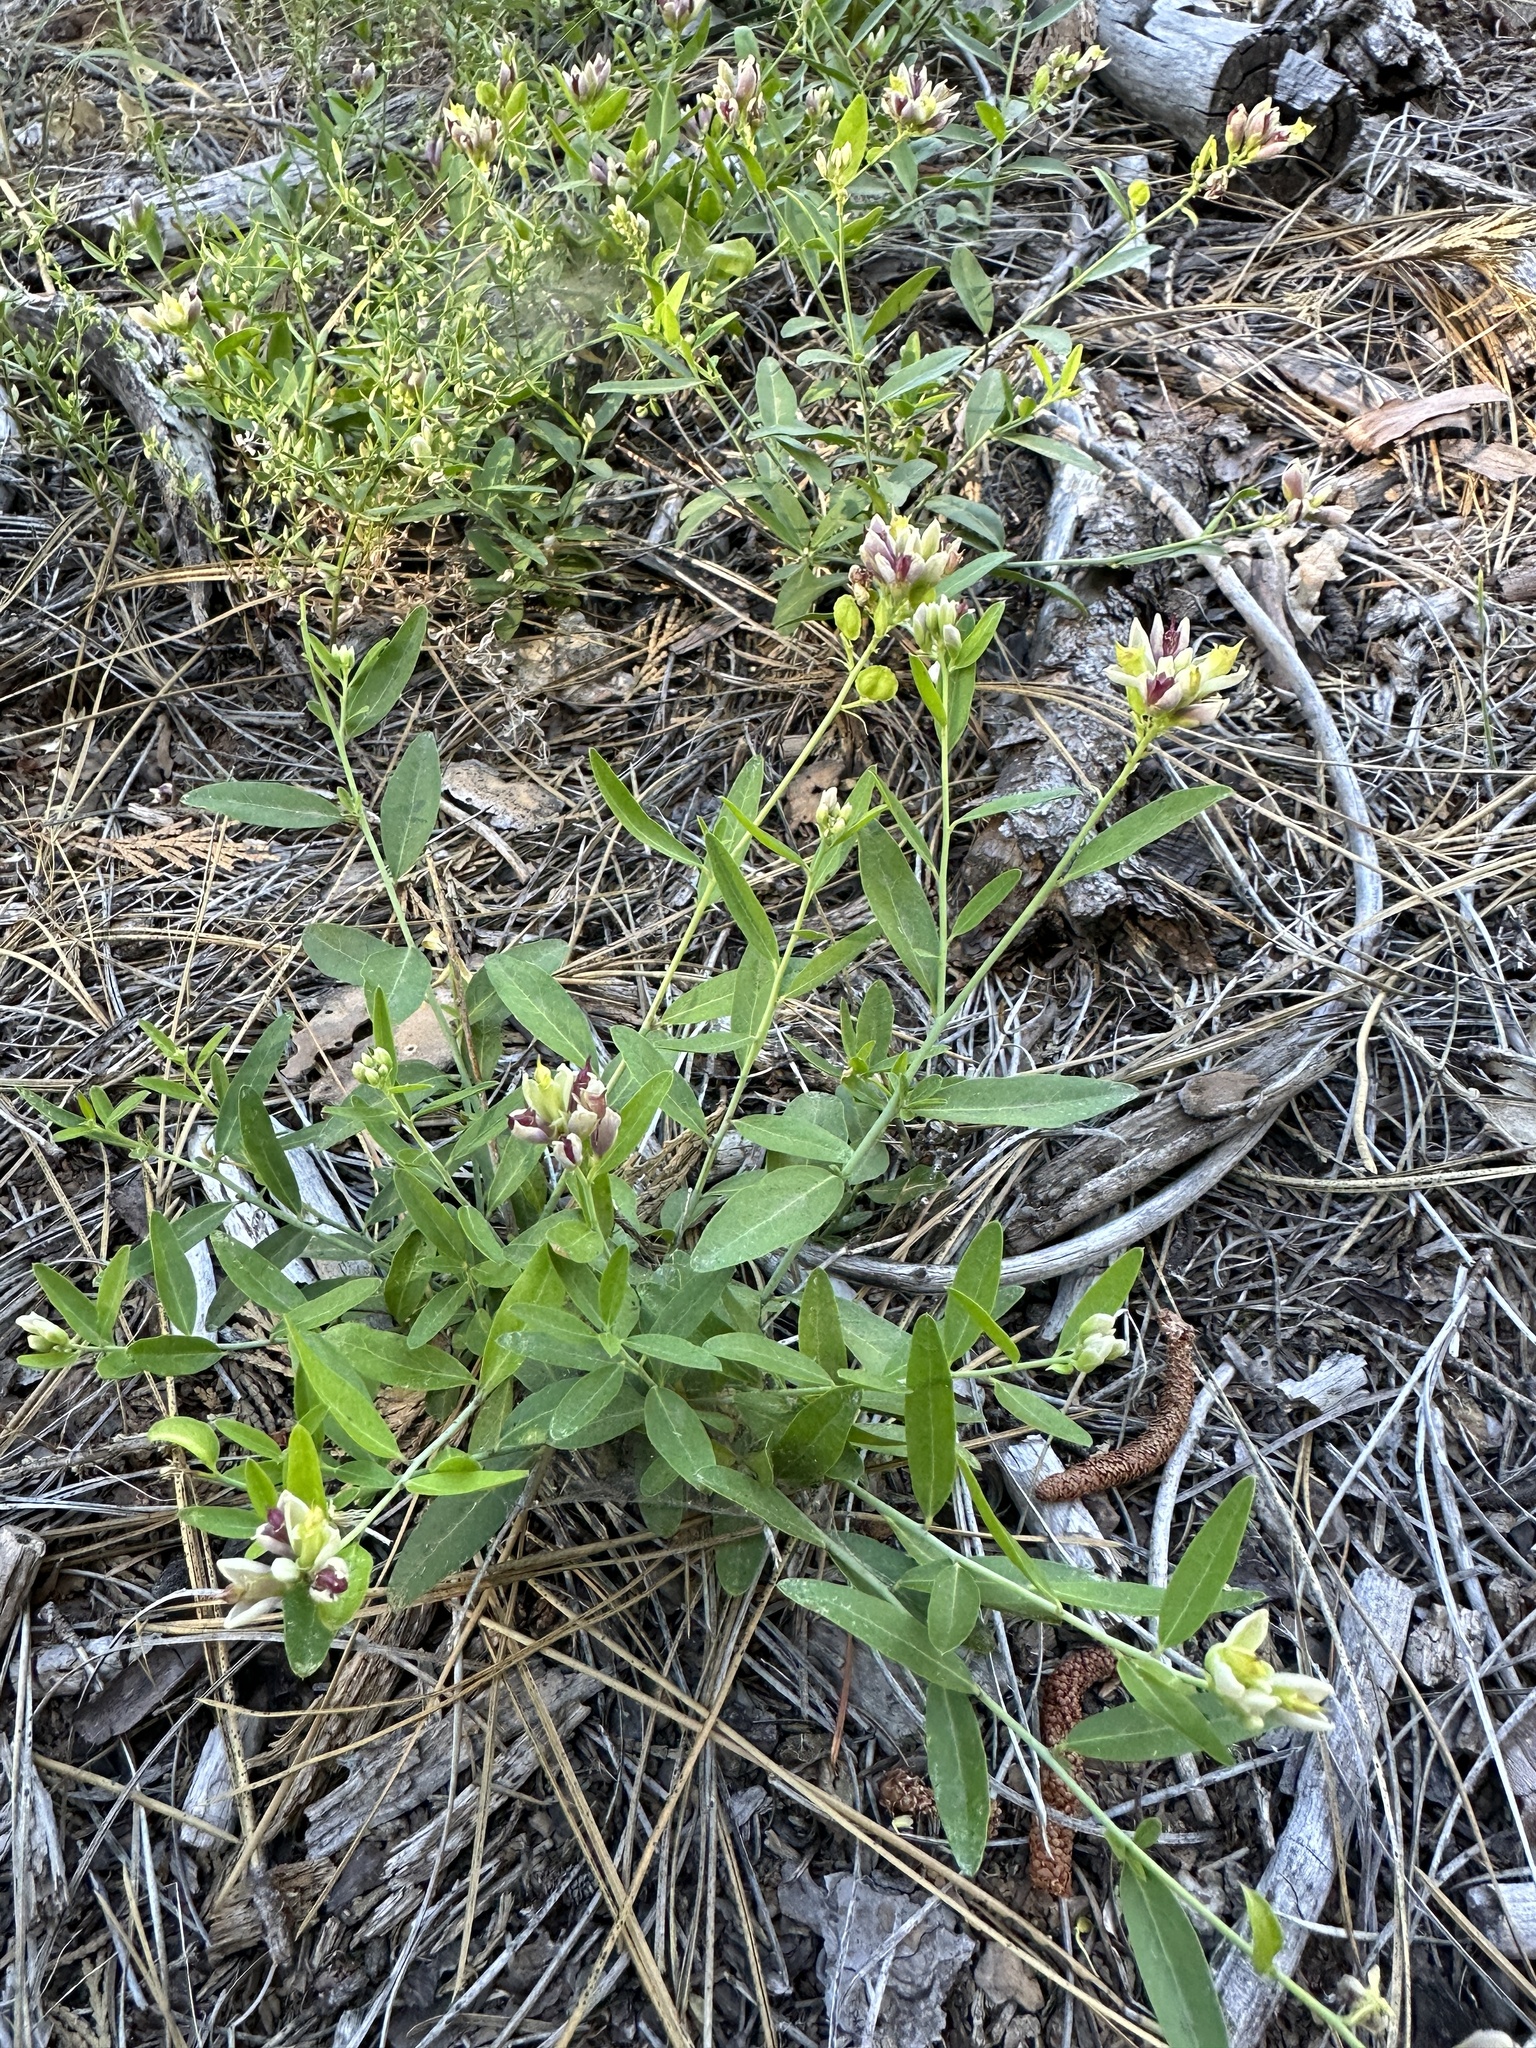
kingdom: Plantae
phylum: Tracheophyta
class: Magnoliopsida
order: Fabales
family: Polygalaceae
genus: Rhinotropis
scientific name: Rhinotropis cornuta
